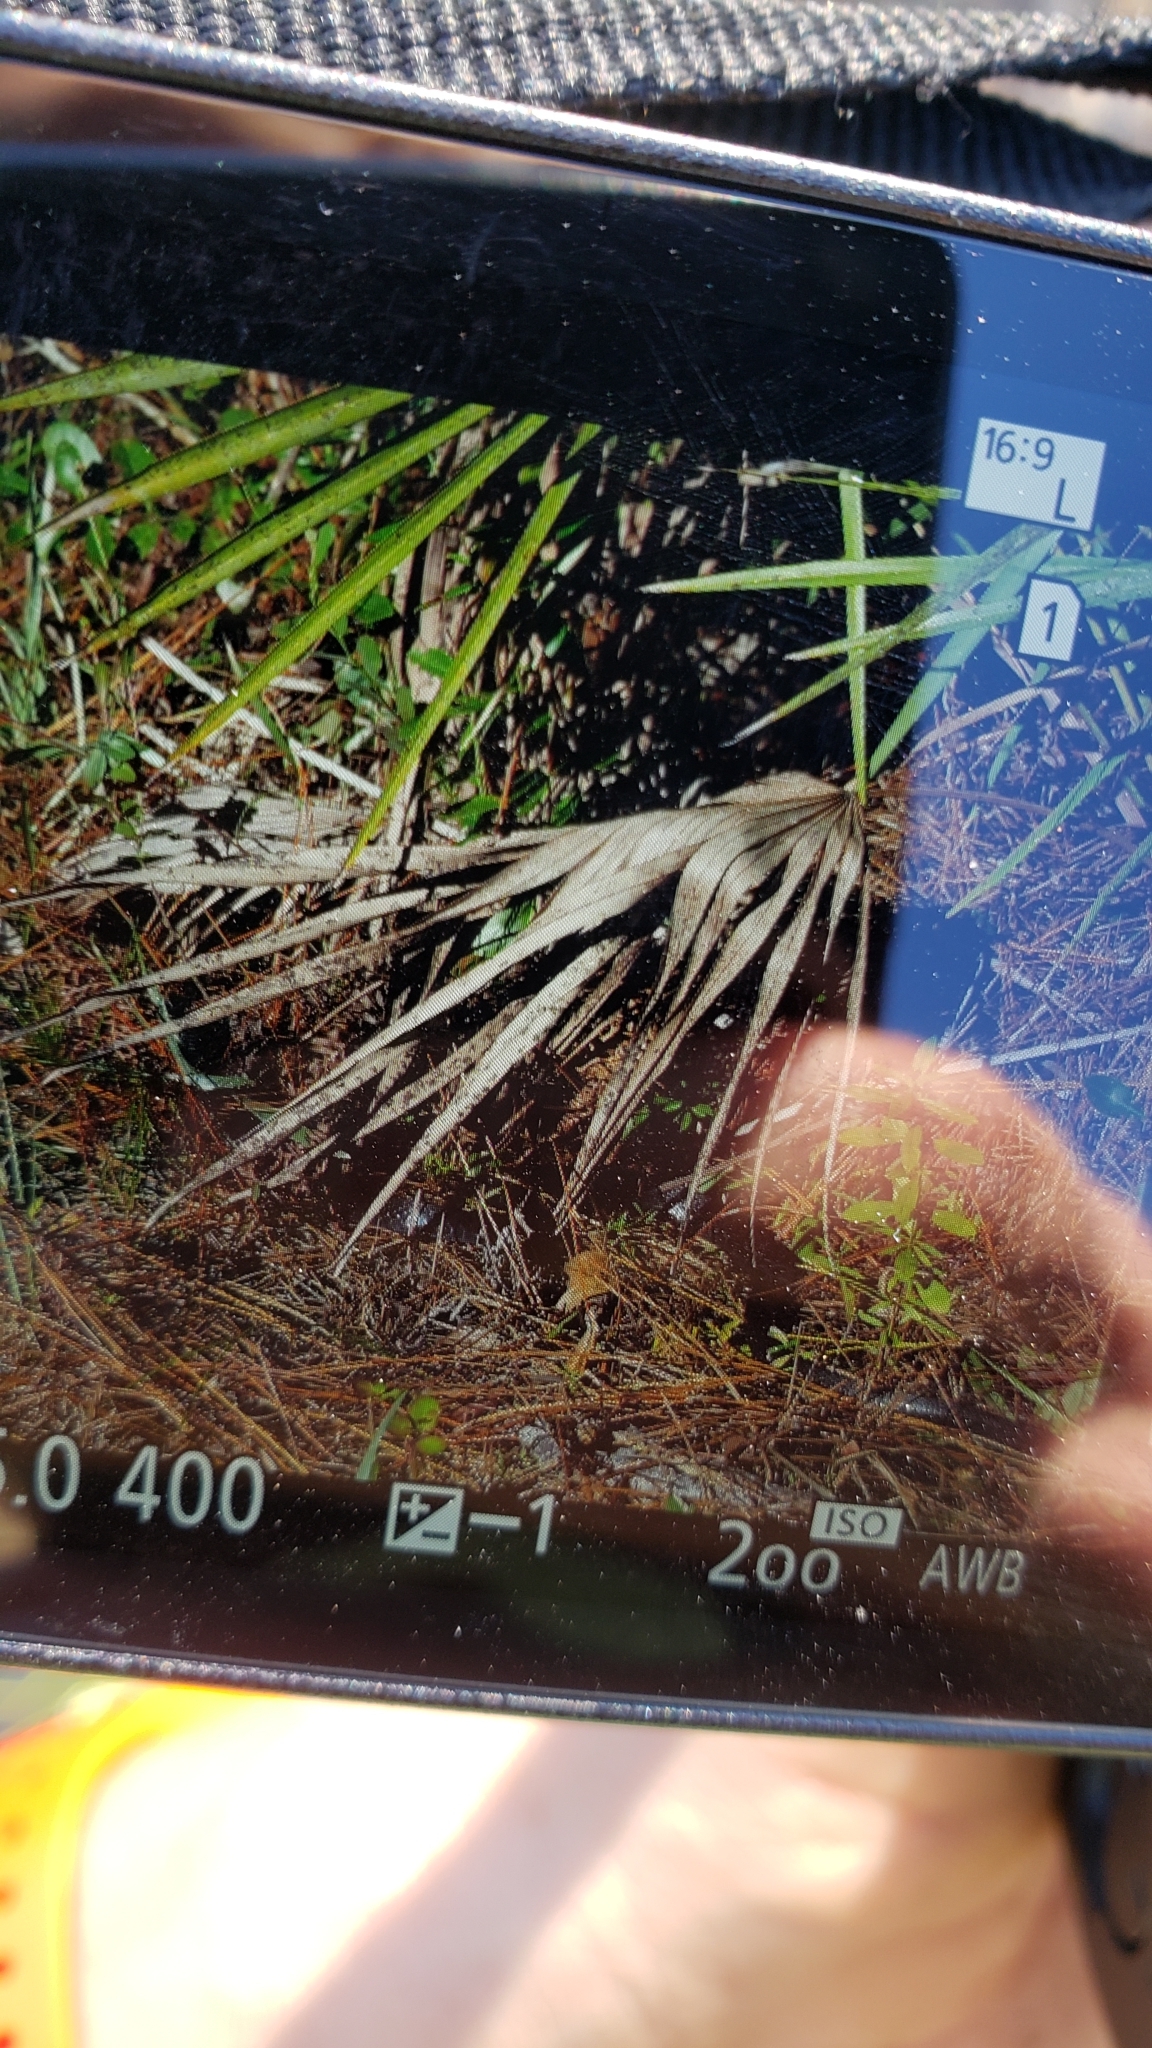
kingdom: Animalia
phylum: Chordata
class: Squamata
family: Colubridae
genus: Coluber
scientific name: Coluber constrictor
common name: Eastern racer
